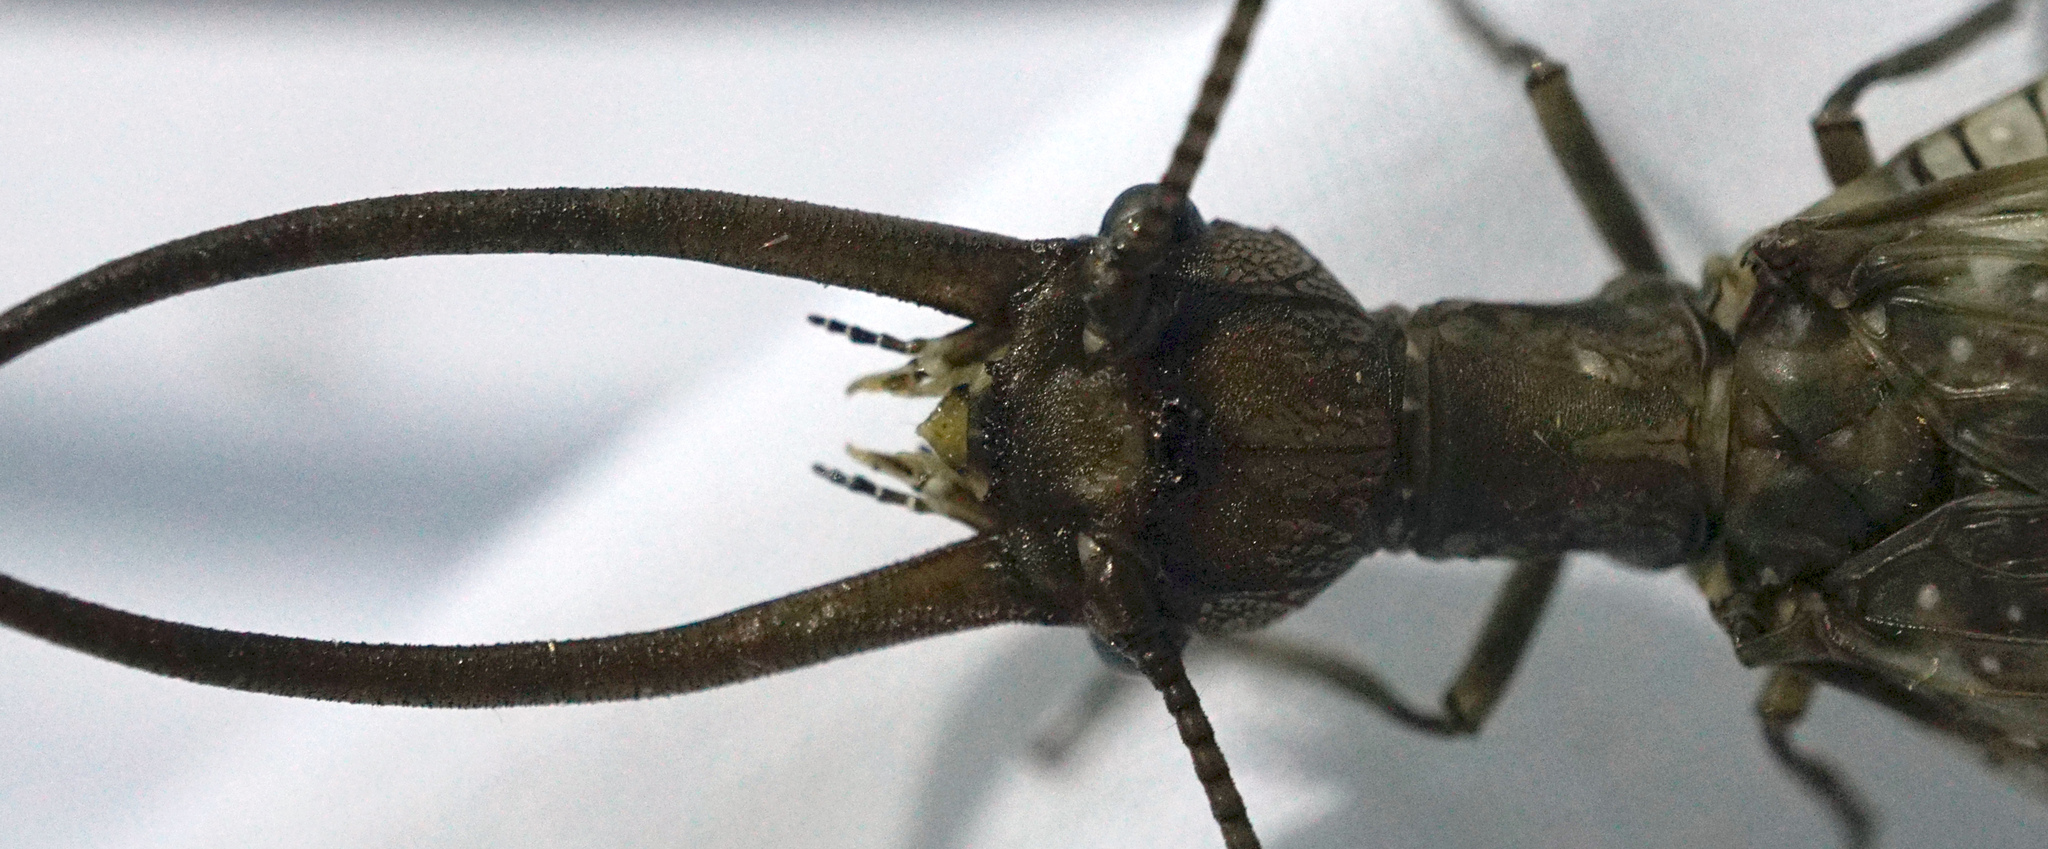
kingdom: Animalia
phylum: Arthropoda
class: Insecta
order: Megaloptera
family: Corydalidae
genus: Corydalus
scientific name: Corydalus cornutus
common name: Dobsonfly
